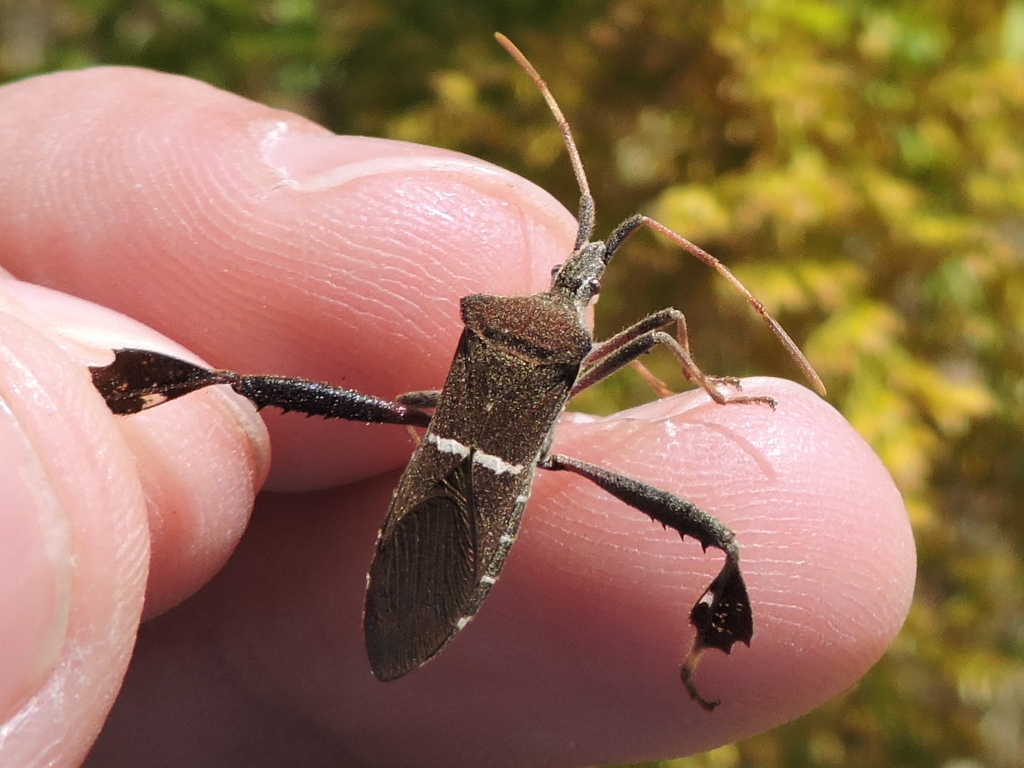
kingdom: Animalia
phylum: Arthropoda
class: Insecta
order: Hemiptera
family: Coreidae
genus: Leptoglossus
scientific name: Leptoglossus phyllopus
